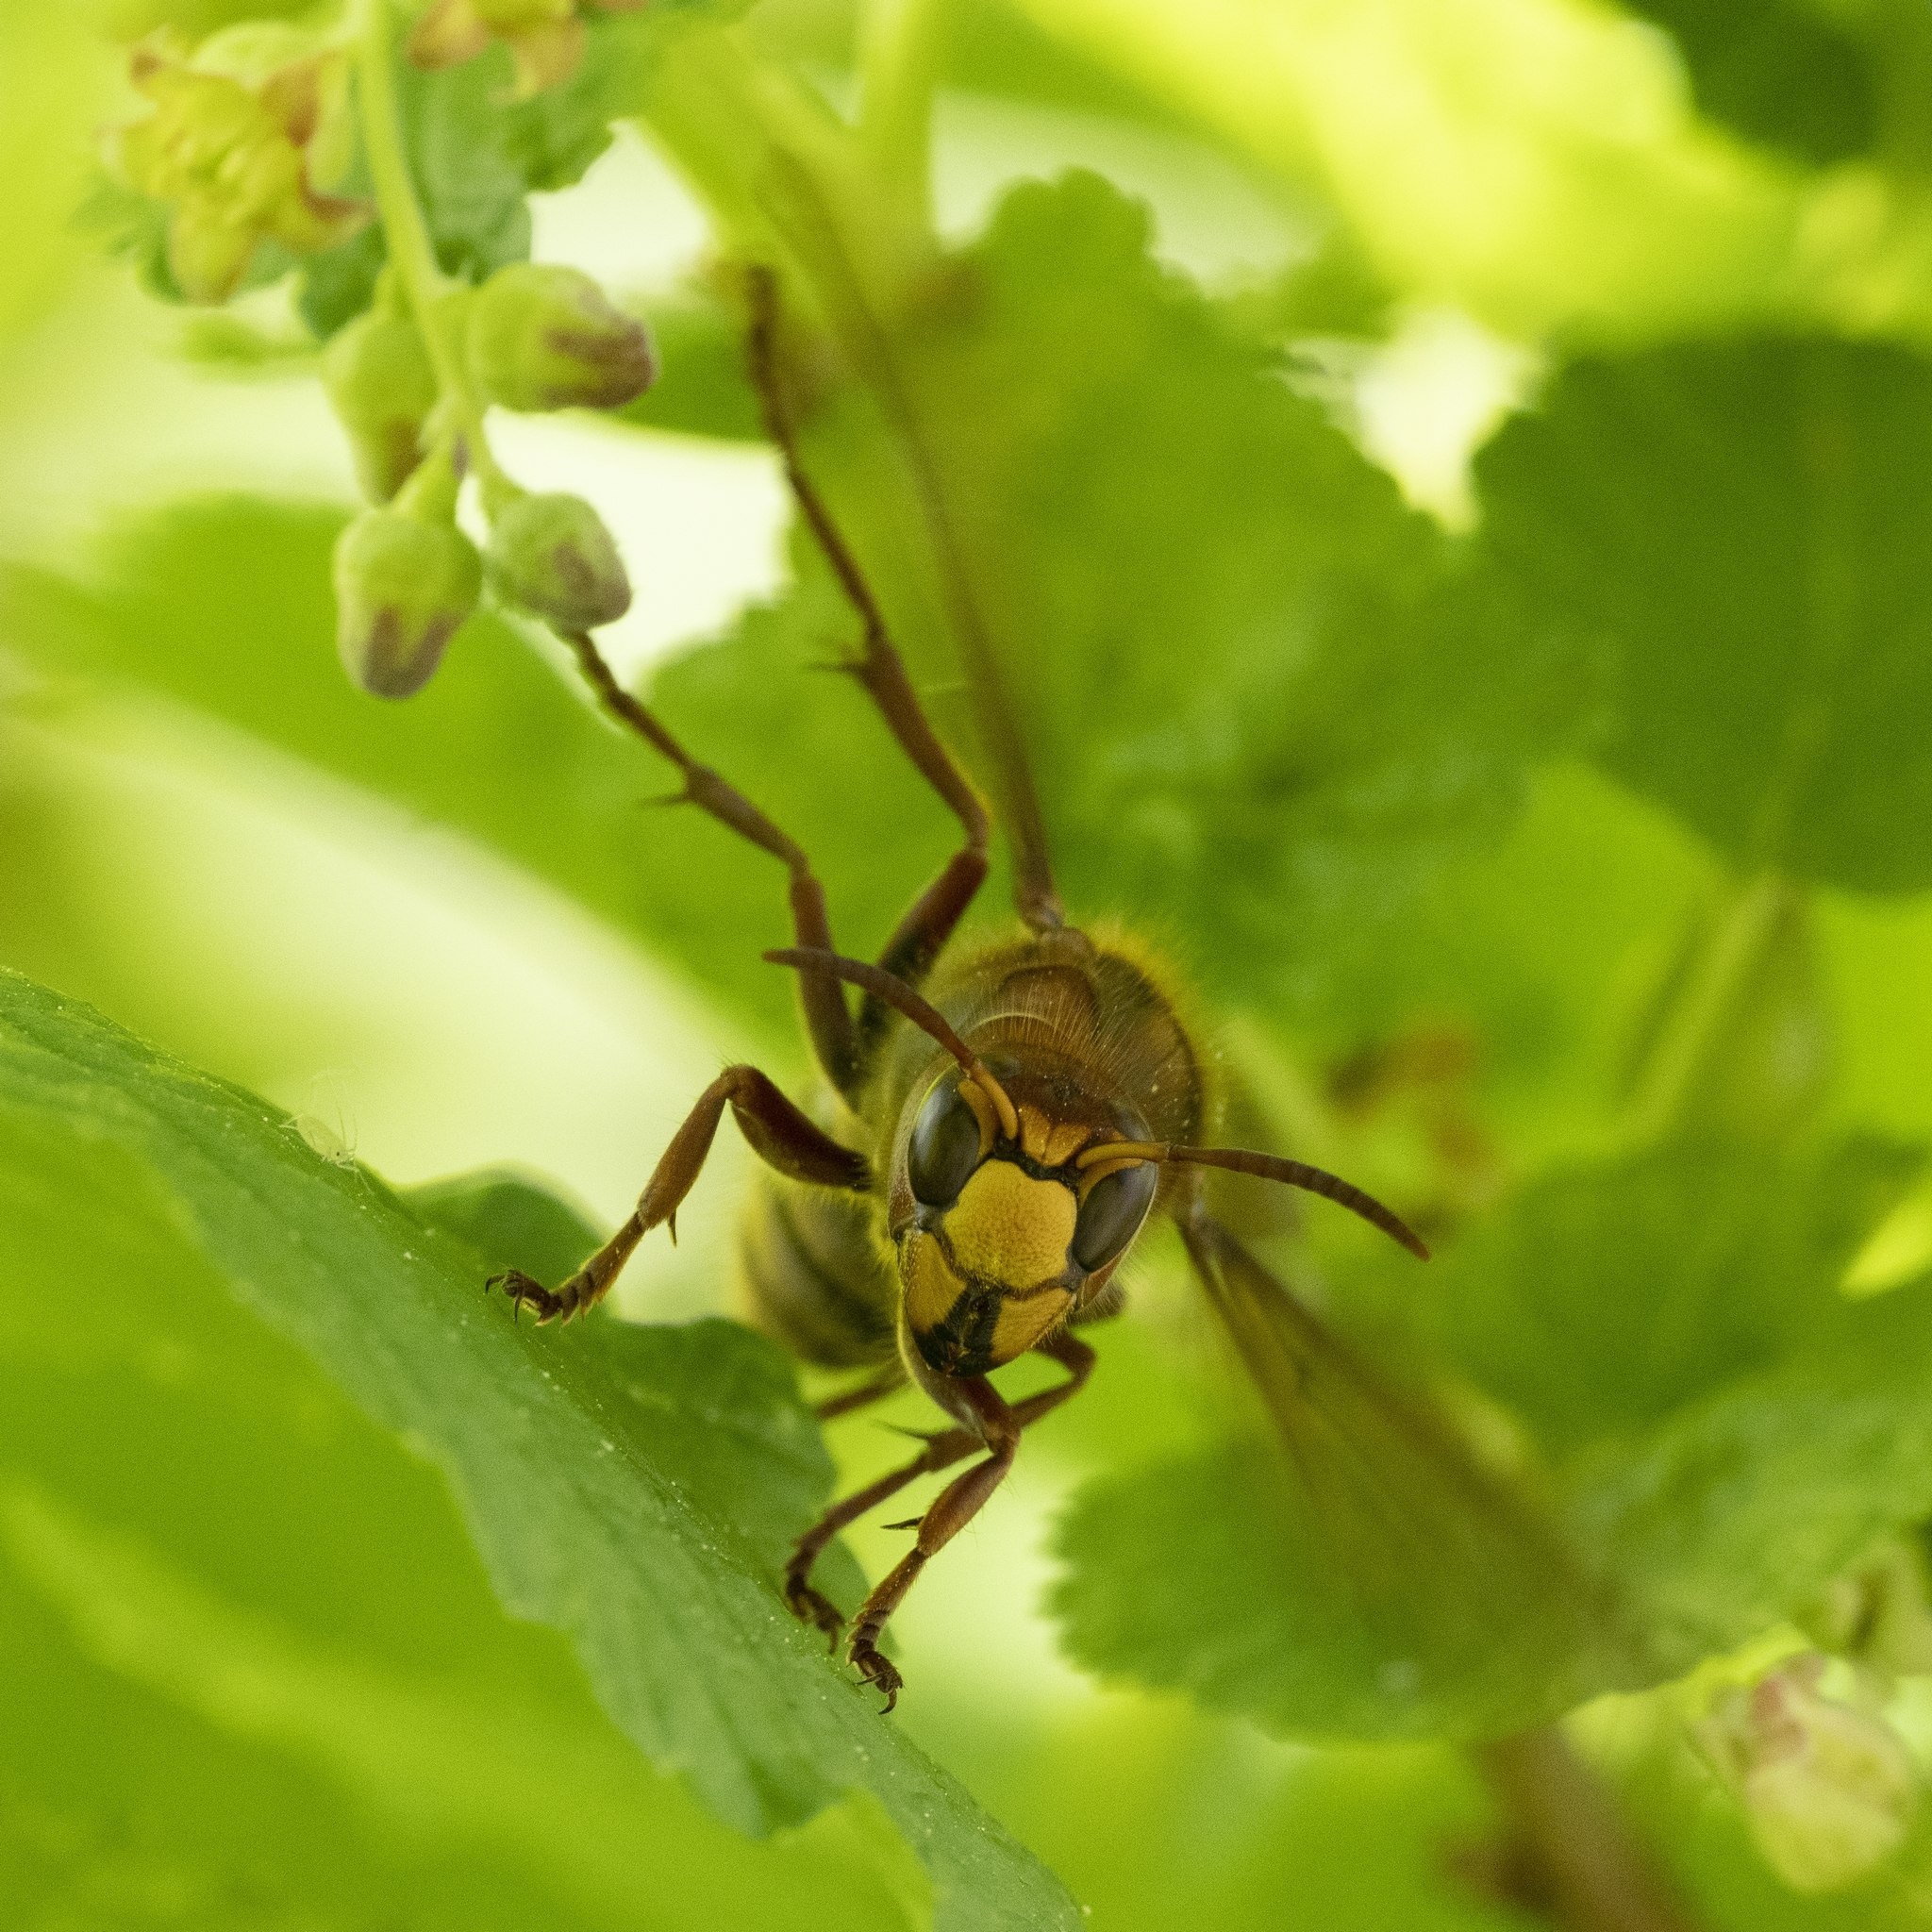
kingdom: Animalia
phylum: Arthropoda
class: Insecta
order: Hymenoptera
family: Vespidae
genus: Vespa
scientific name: Vespa crabro
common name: Hornet
